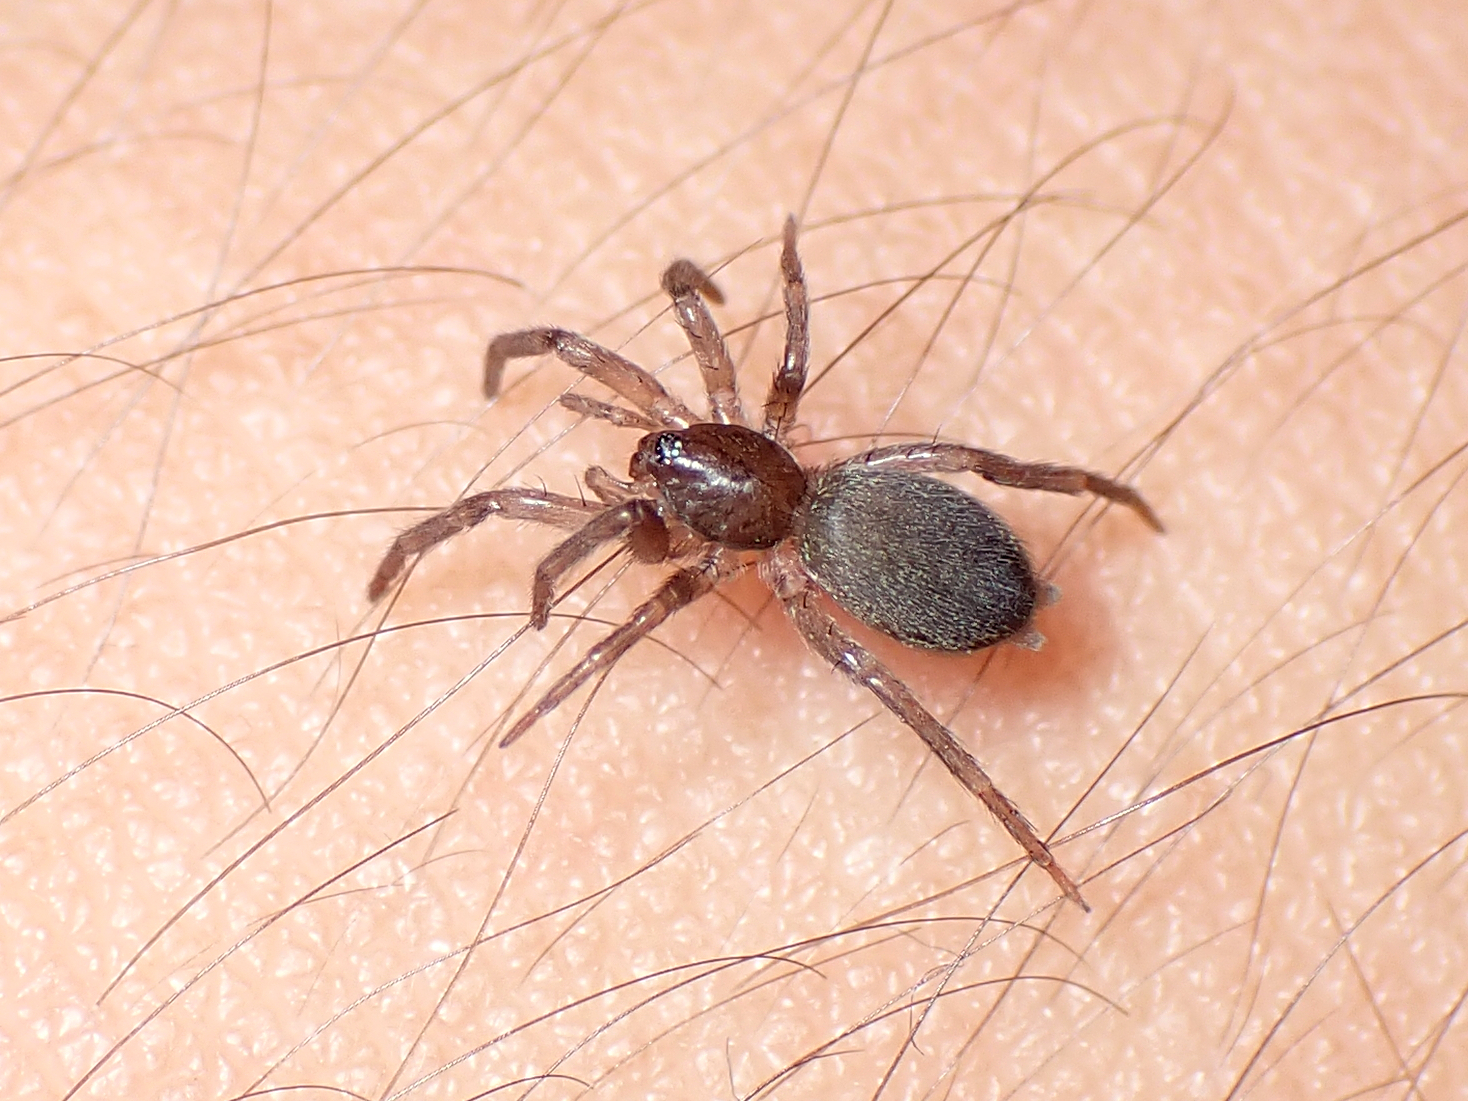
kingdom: Animalia
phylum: Arthropoda
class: Arachnida
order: Araneae
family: Gnaphosidae
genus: Hypodrassodes
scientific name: Hypodrassodes maoricus
